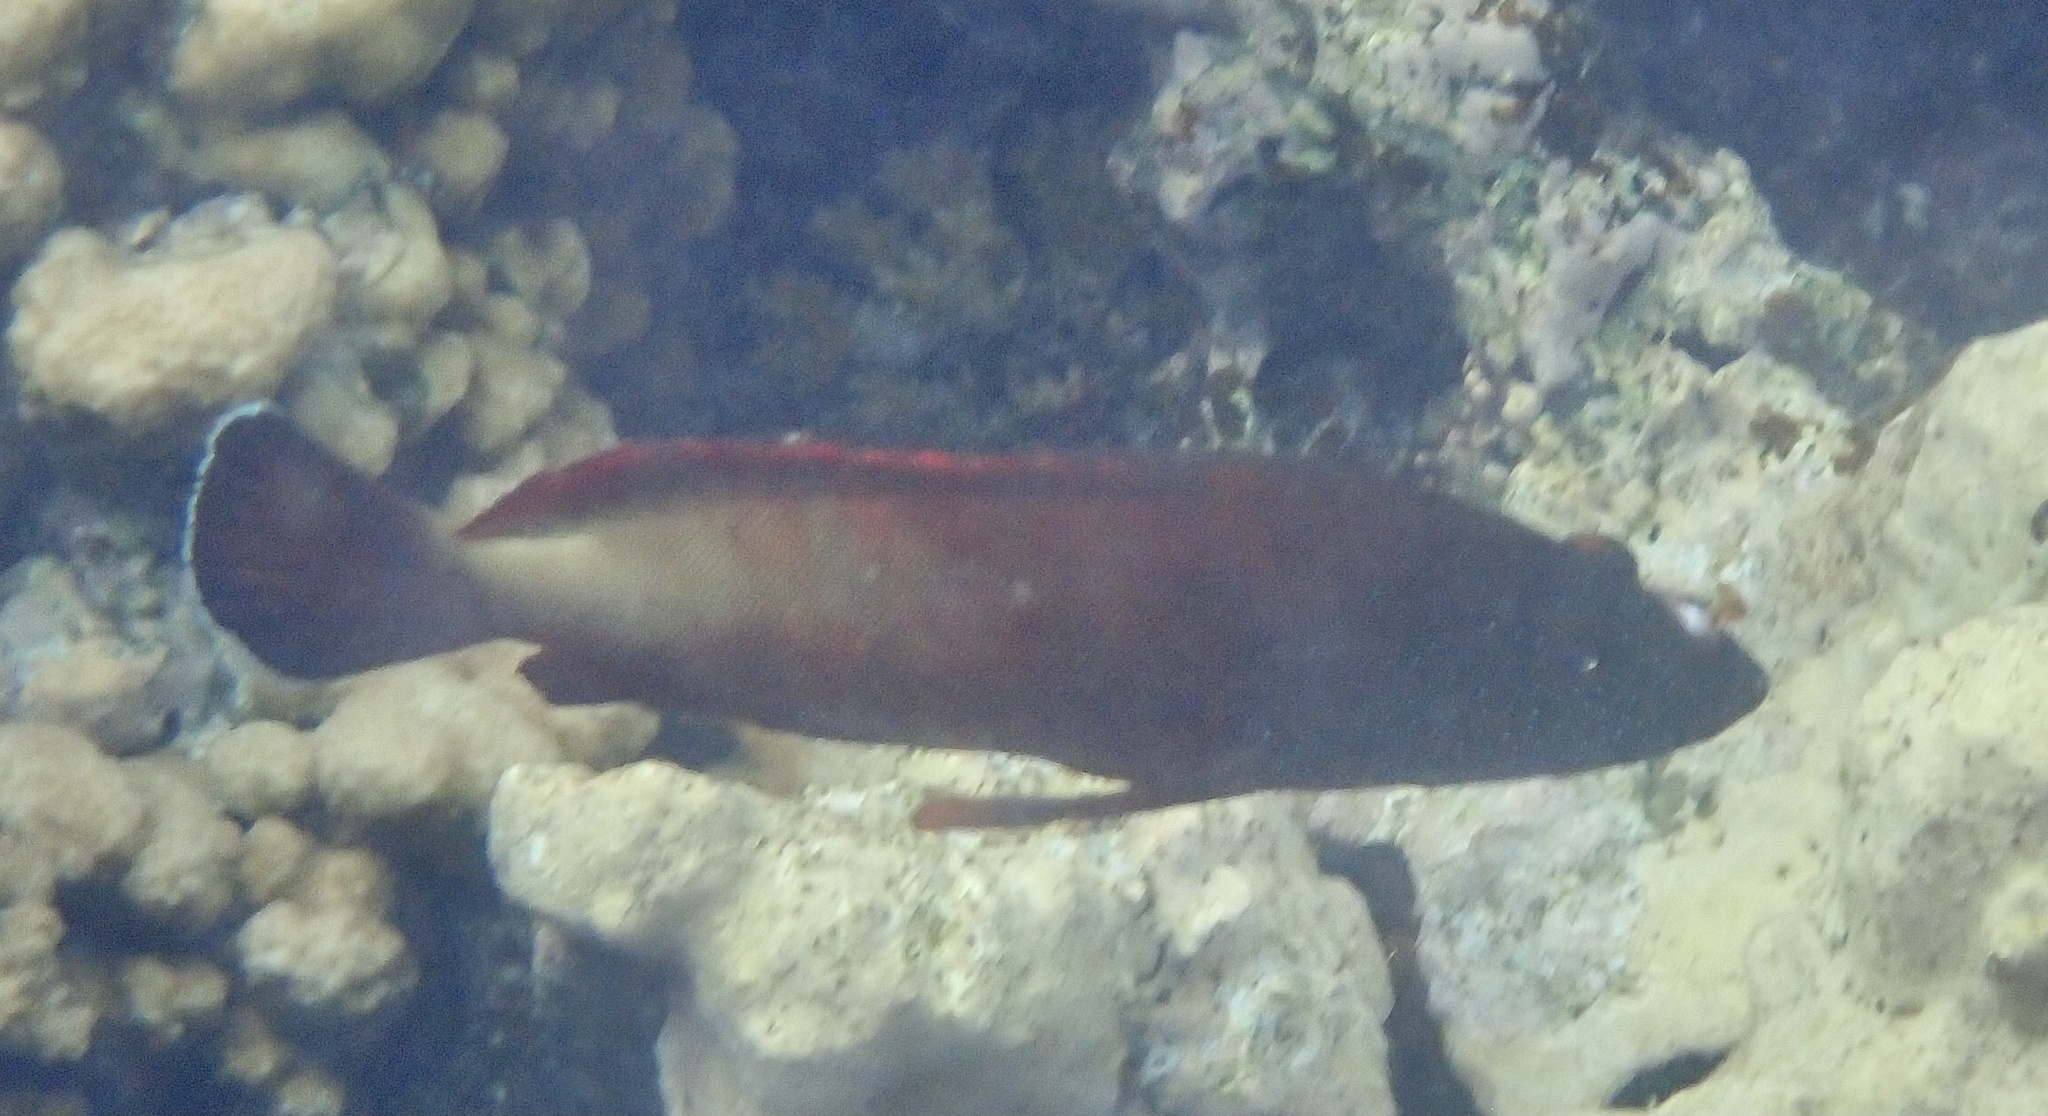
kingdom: Animalia
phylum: Chordata
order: Perciformes
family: Serranidae
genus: Cephalopholis
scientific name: Cephalopholis hemistiktos
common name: Halfspotted hind
